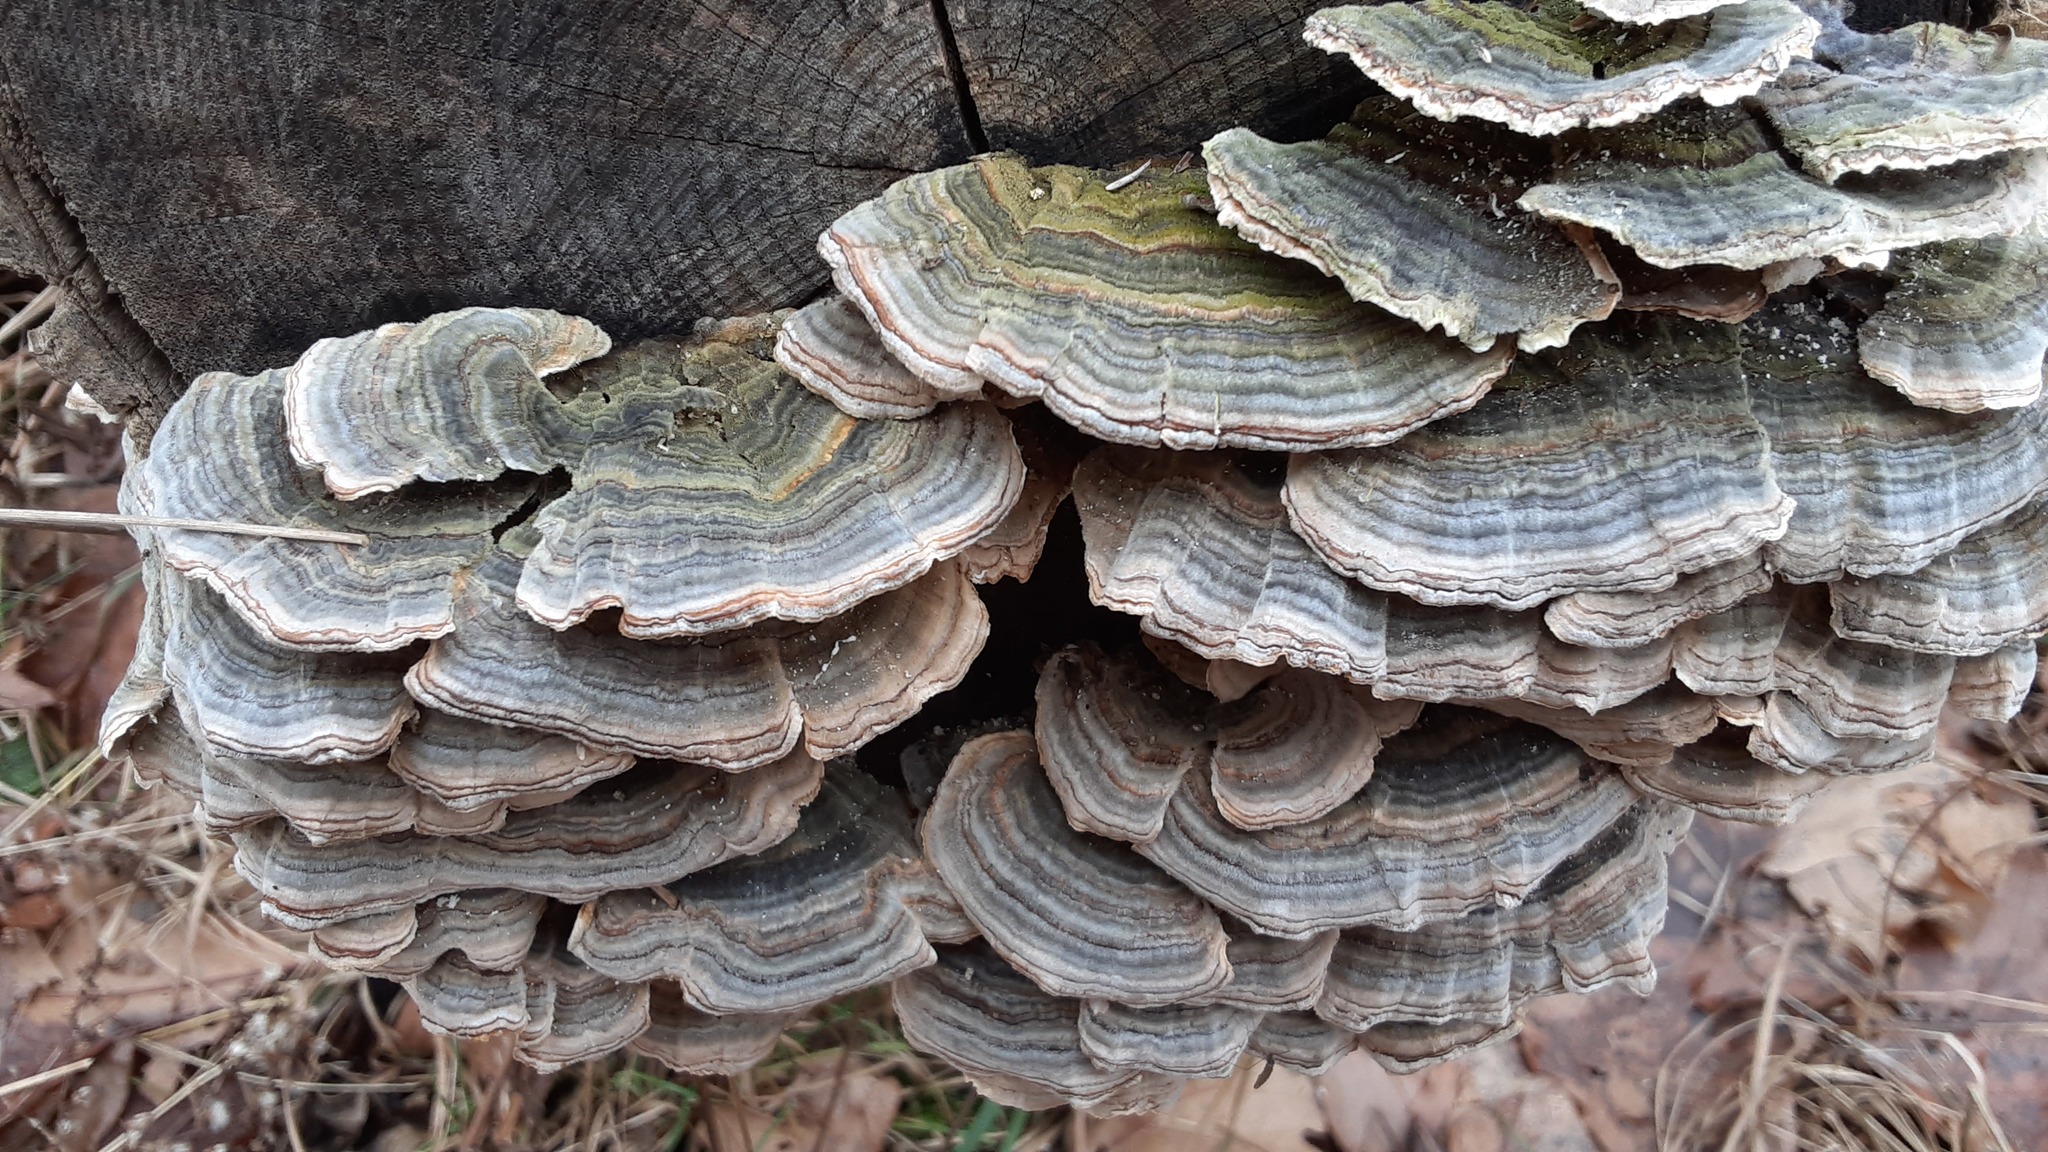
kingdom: Fungi
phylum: Basidiomycota
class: Agaricomycetes
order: Polyporales
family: Polyporaceae
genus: Trametes
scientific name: Trametes versicolor
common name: Turkeytail
